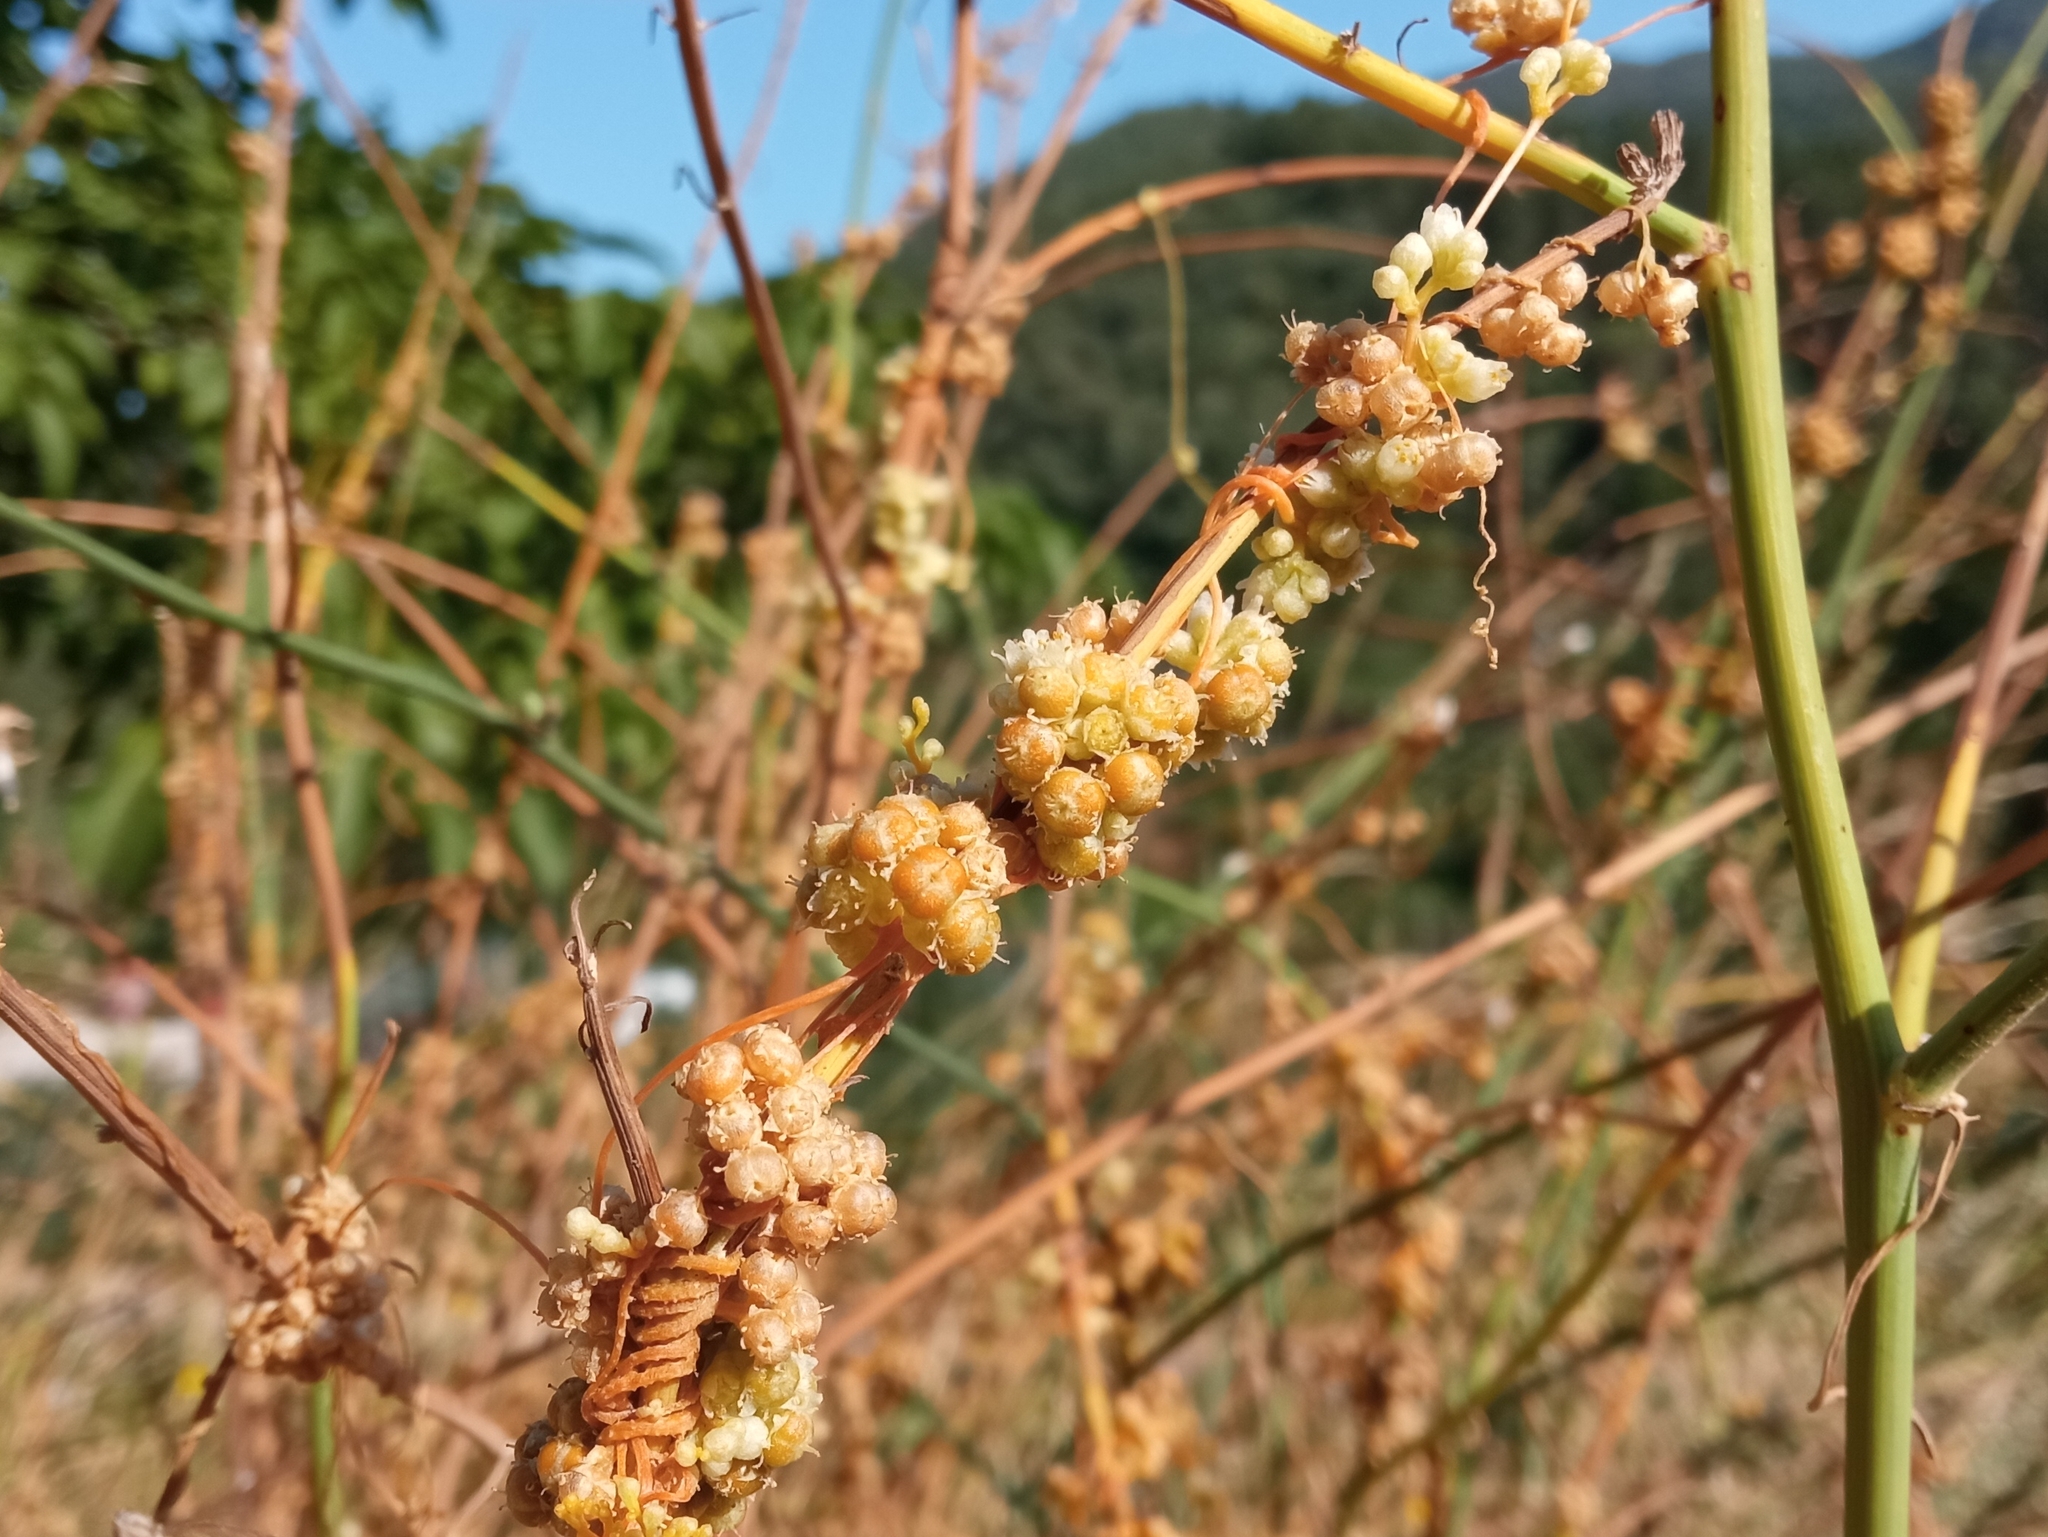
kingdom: Plantae
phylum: Tracheophyta
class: Magnoliopsida
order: Solanales
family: Convolvulaceae
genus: Cuscuta
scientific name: Cuscuta campestris
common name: Yellow dodder
